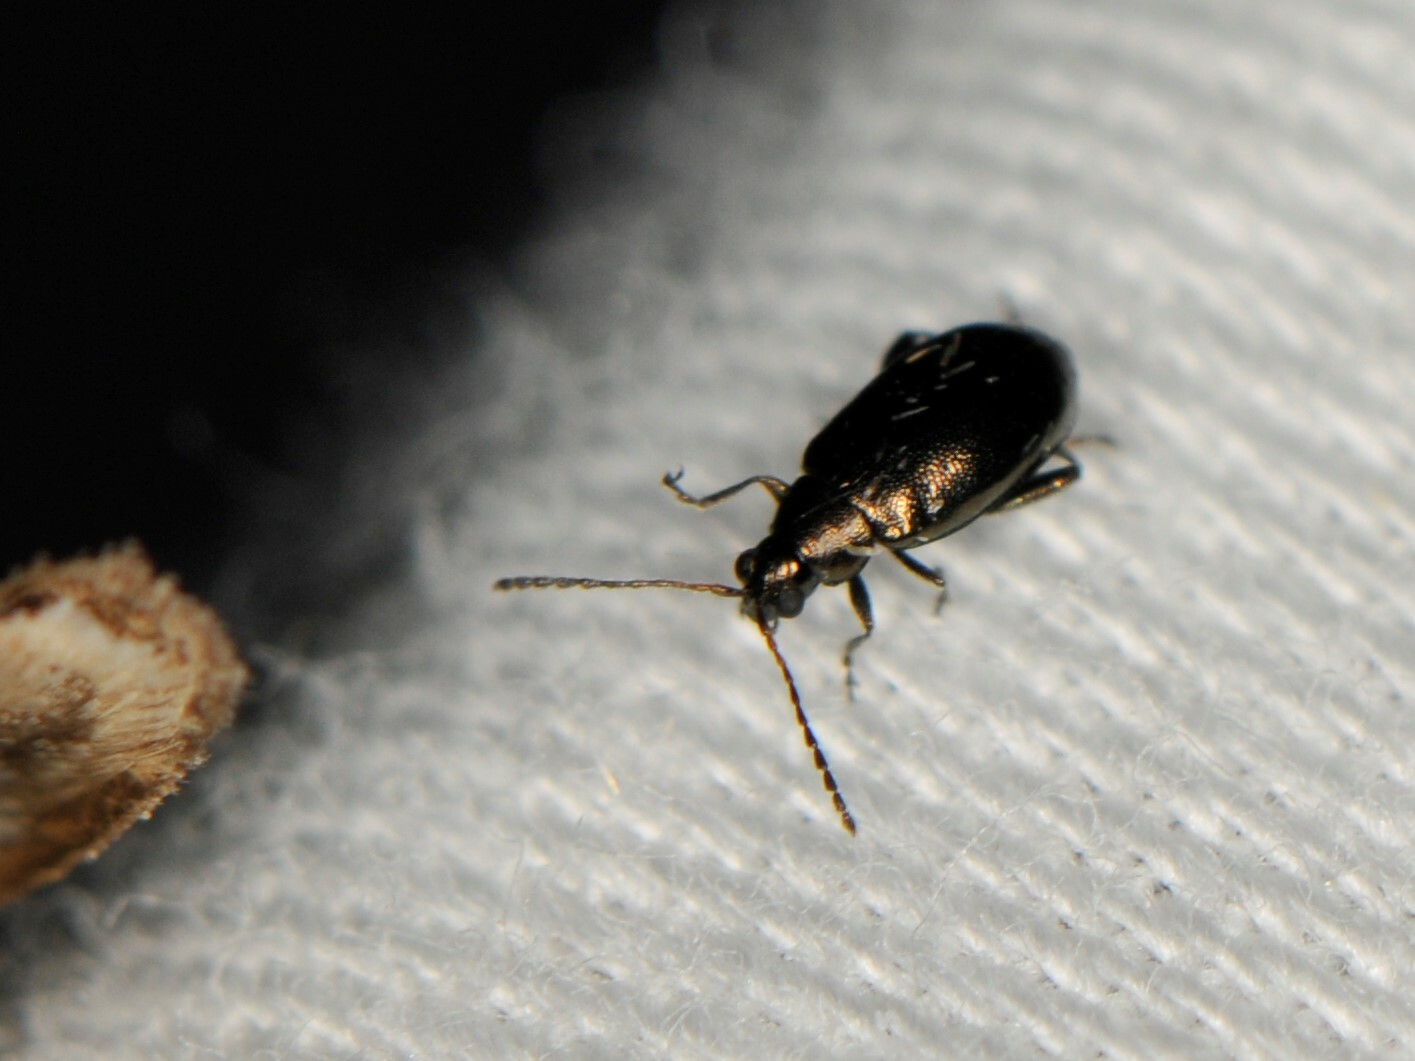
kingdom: Animalia
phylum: Arthropoda
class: Insecta
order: Coleoptera
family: Chrysomelidae
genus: Phyllotreta
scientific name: Phyllotreta
